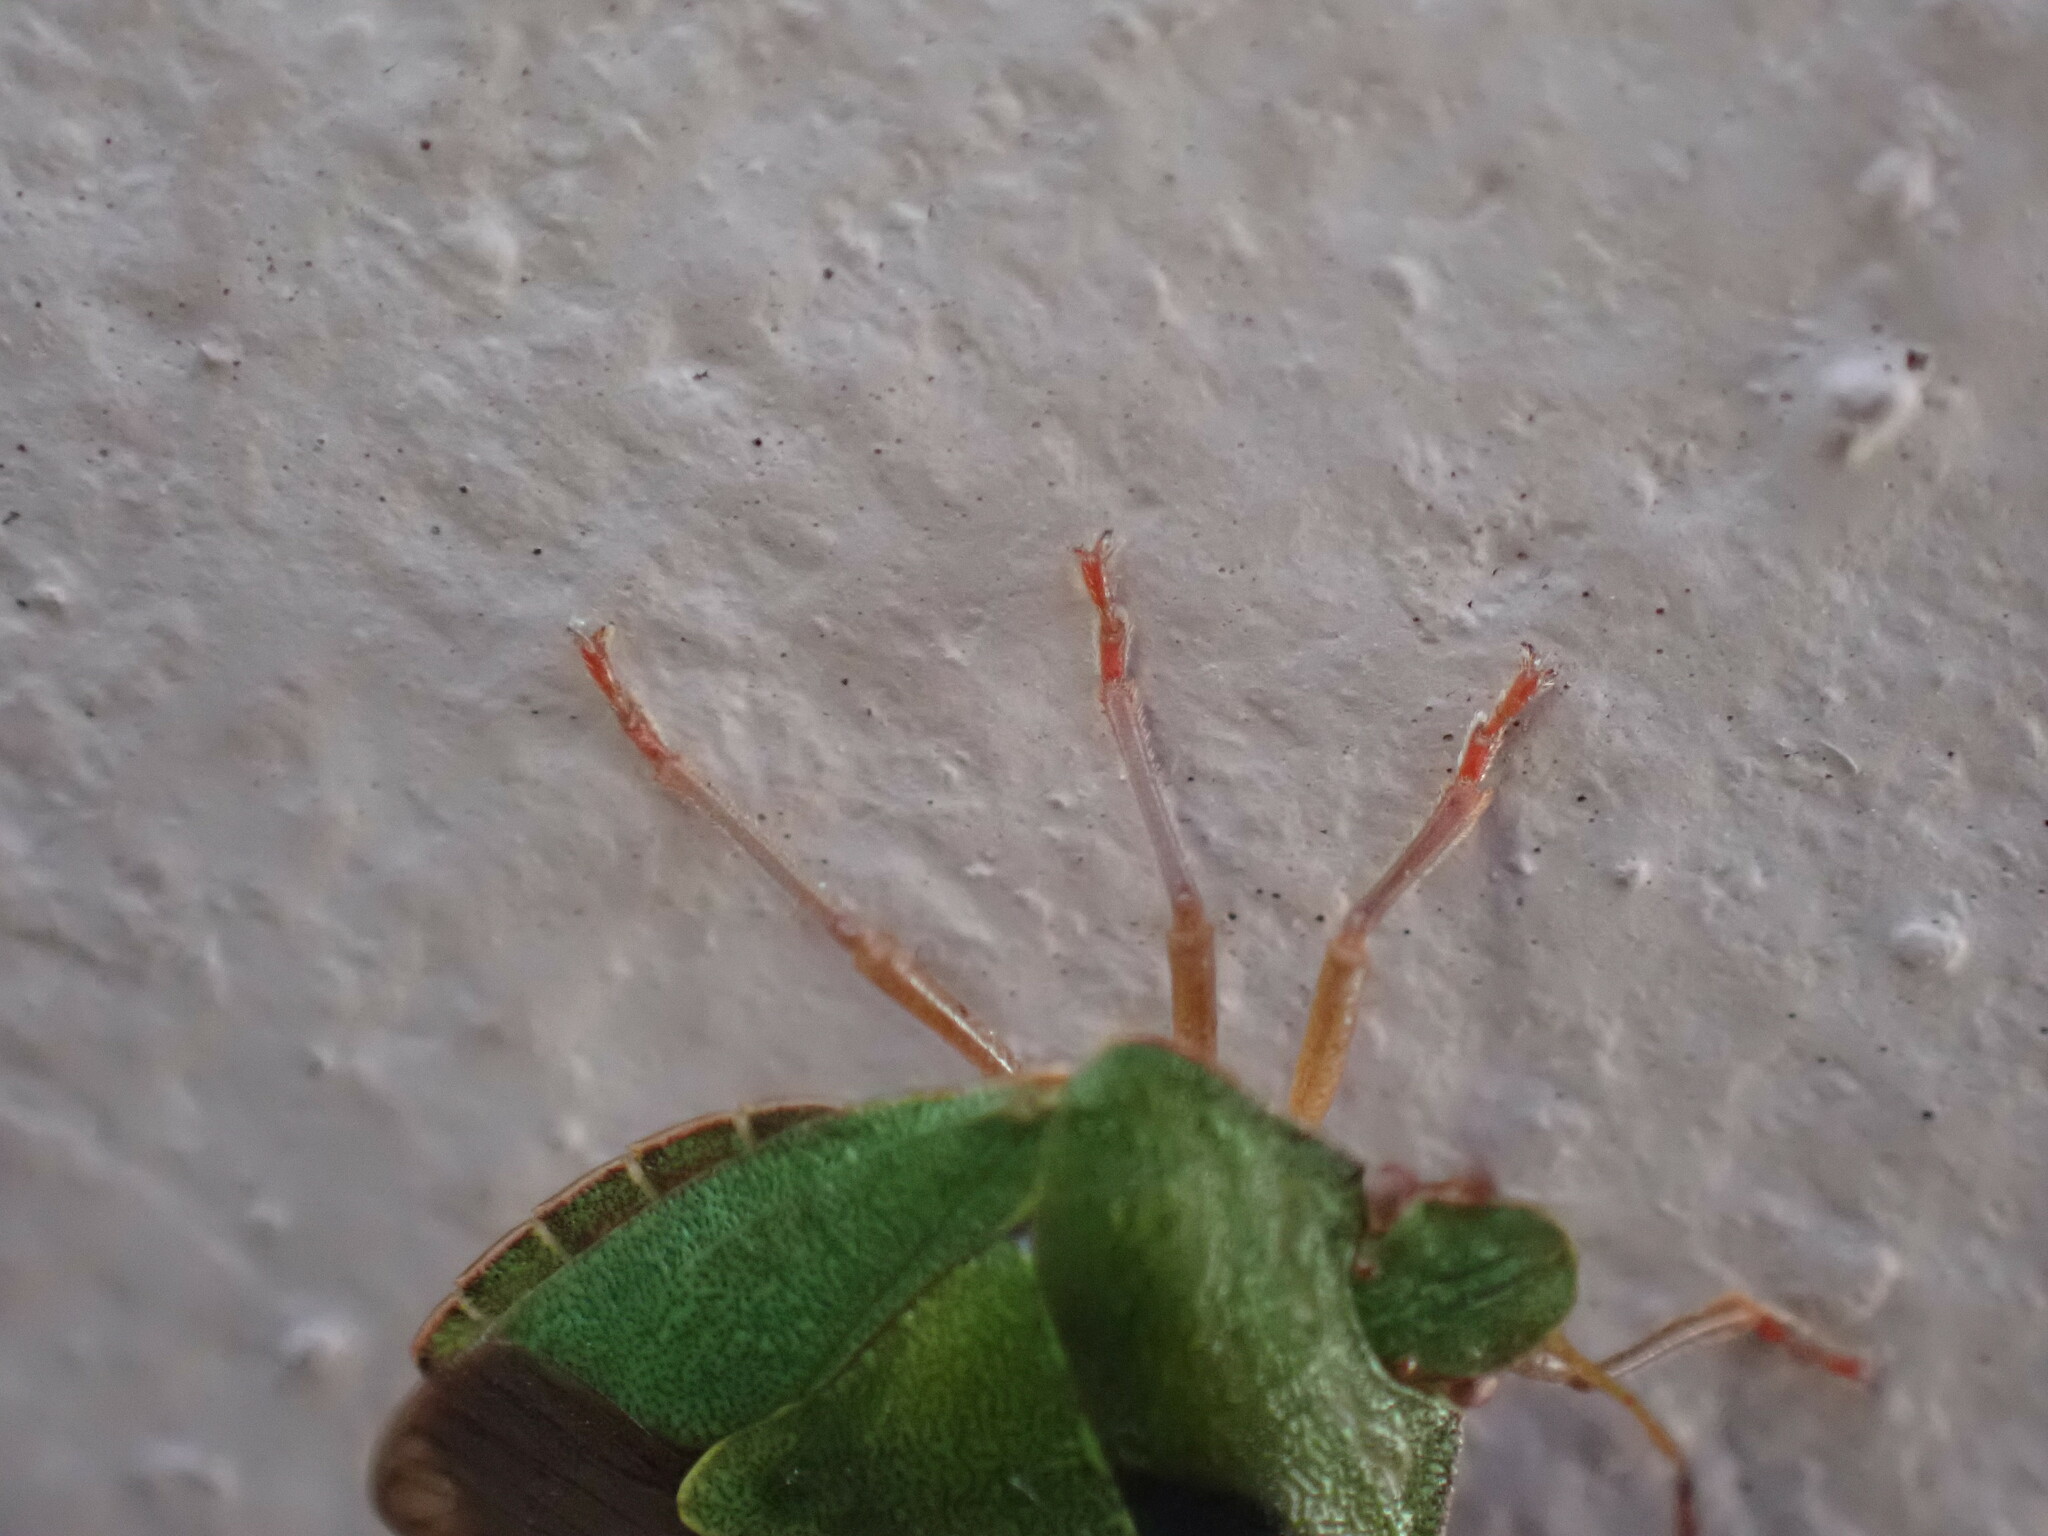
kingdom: Animalia
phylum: Arthropoda
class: Insecta
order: Hemiptera
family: Pentatomidae
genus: Palomena
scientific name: Palomena prasina
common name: Green shieldbug
